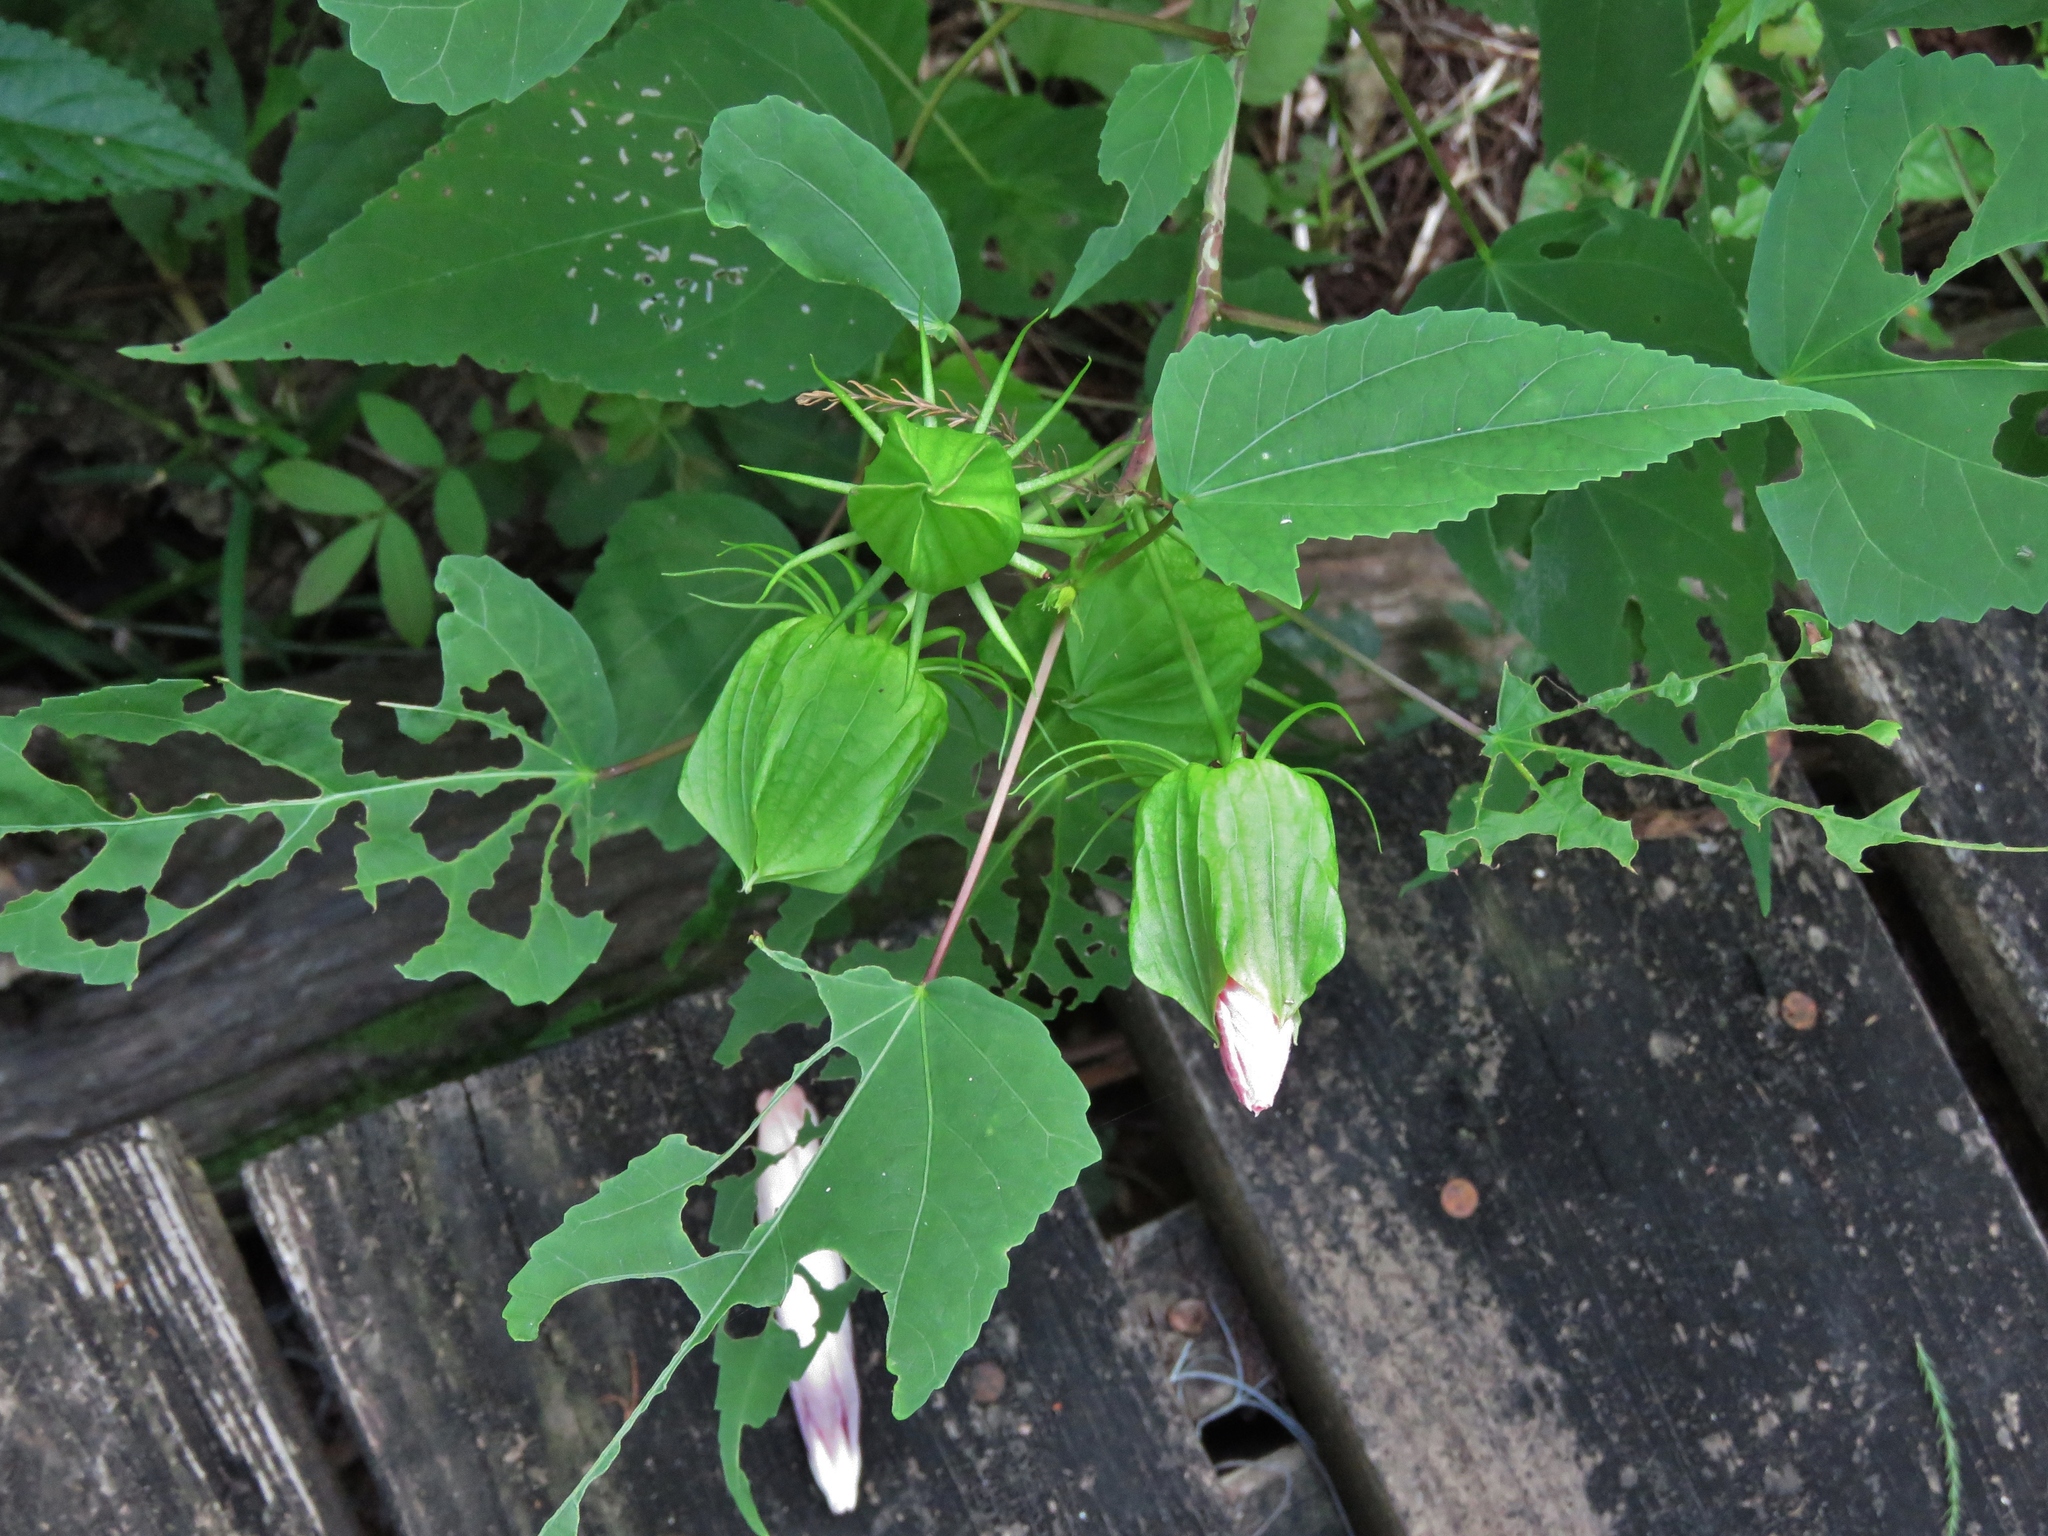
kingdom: Plantae
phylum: Tracheophyta
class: Magnoliopsida
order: Malvales
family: Malvaceae
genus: Hibiscus
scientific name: Hibiscus laevis
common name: Scarlet rose-mallow
